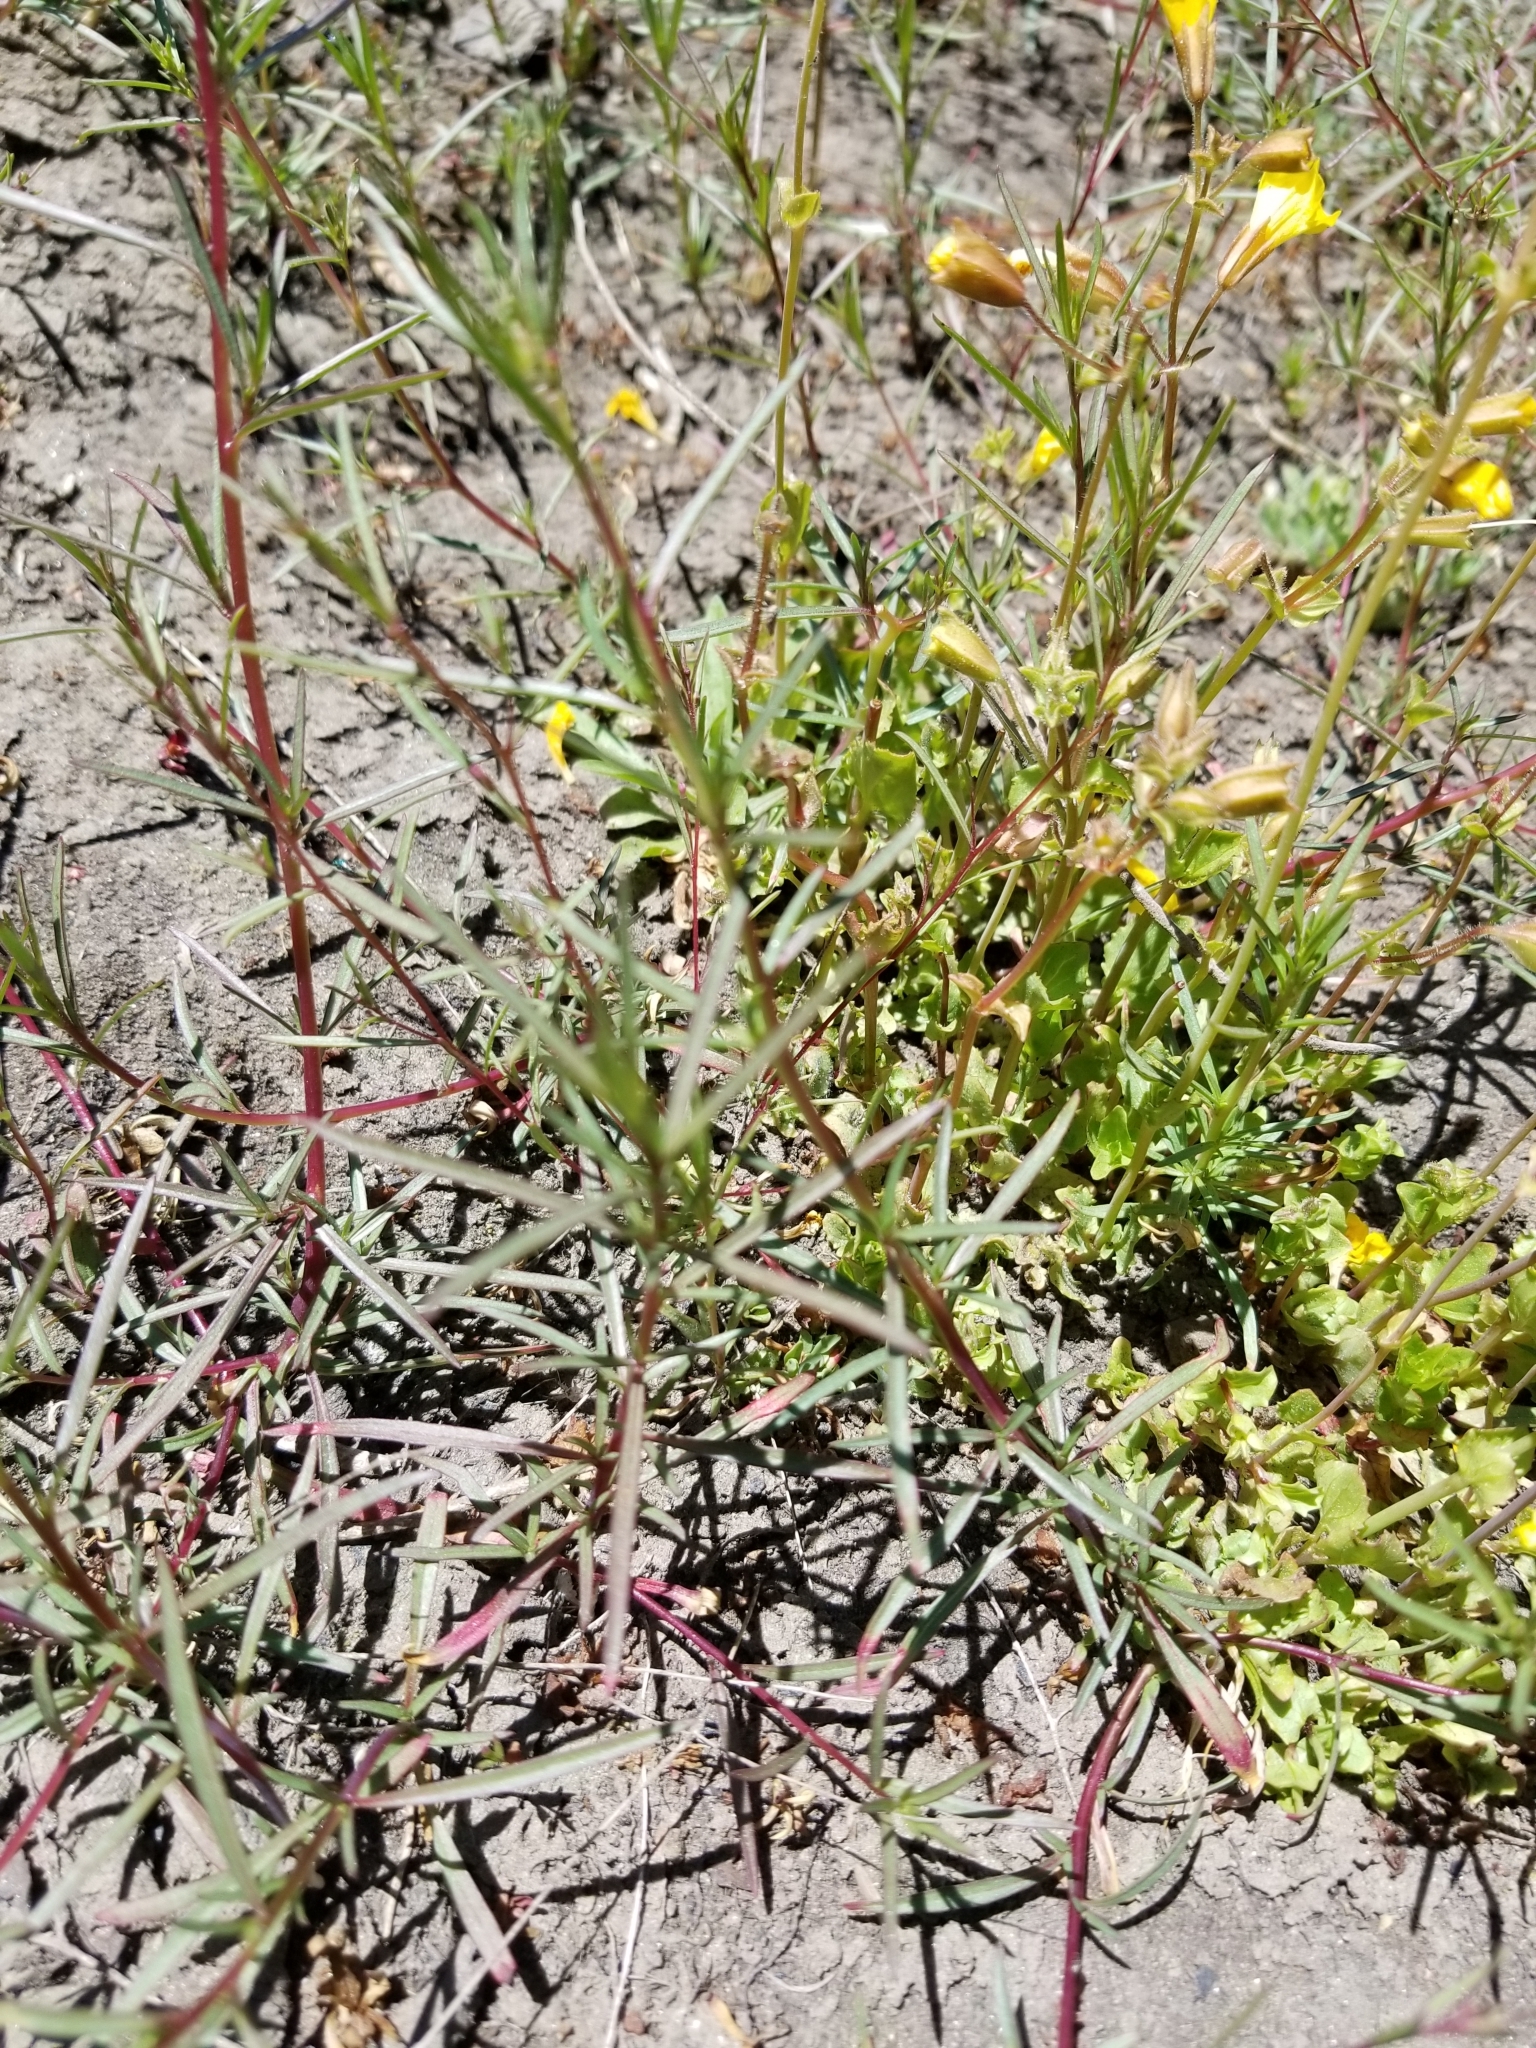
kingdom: Plantae
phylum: Tracheophyta
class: Magnoliopsida
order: Lamiales
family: Phrymaceae
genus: Erythranthe
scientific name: Erythranthe guttata
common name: Monkeyflower
